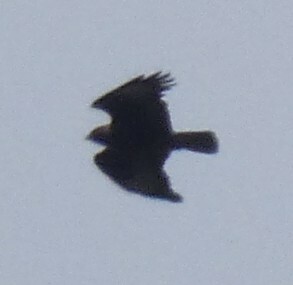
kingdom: Animalia
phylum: Chordata
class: Aves
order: Accipitriformes
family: Accipitridae
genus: Buteo
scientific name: Buteo buteo
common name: Common buzzard
